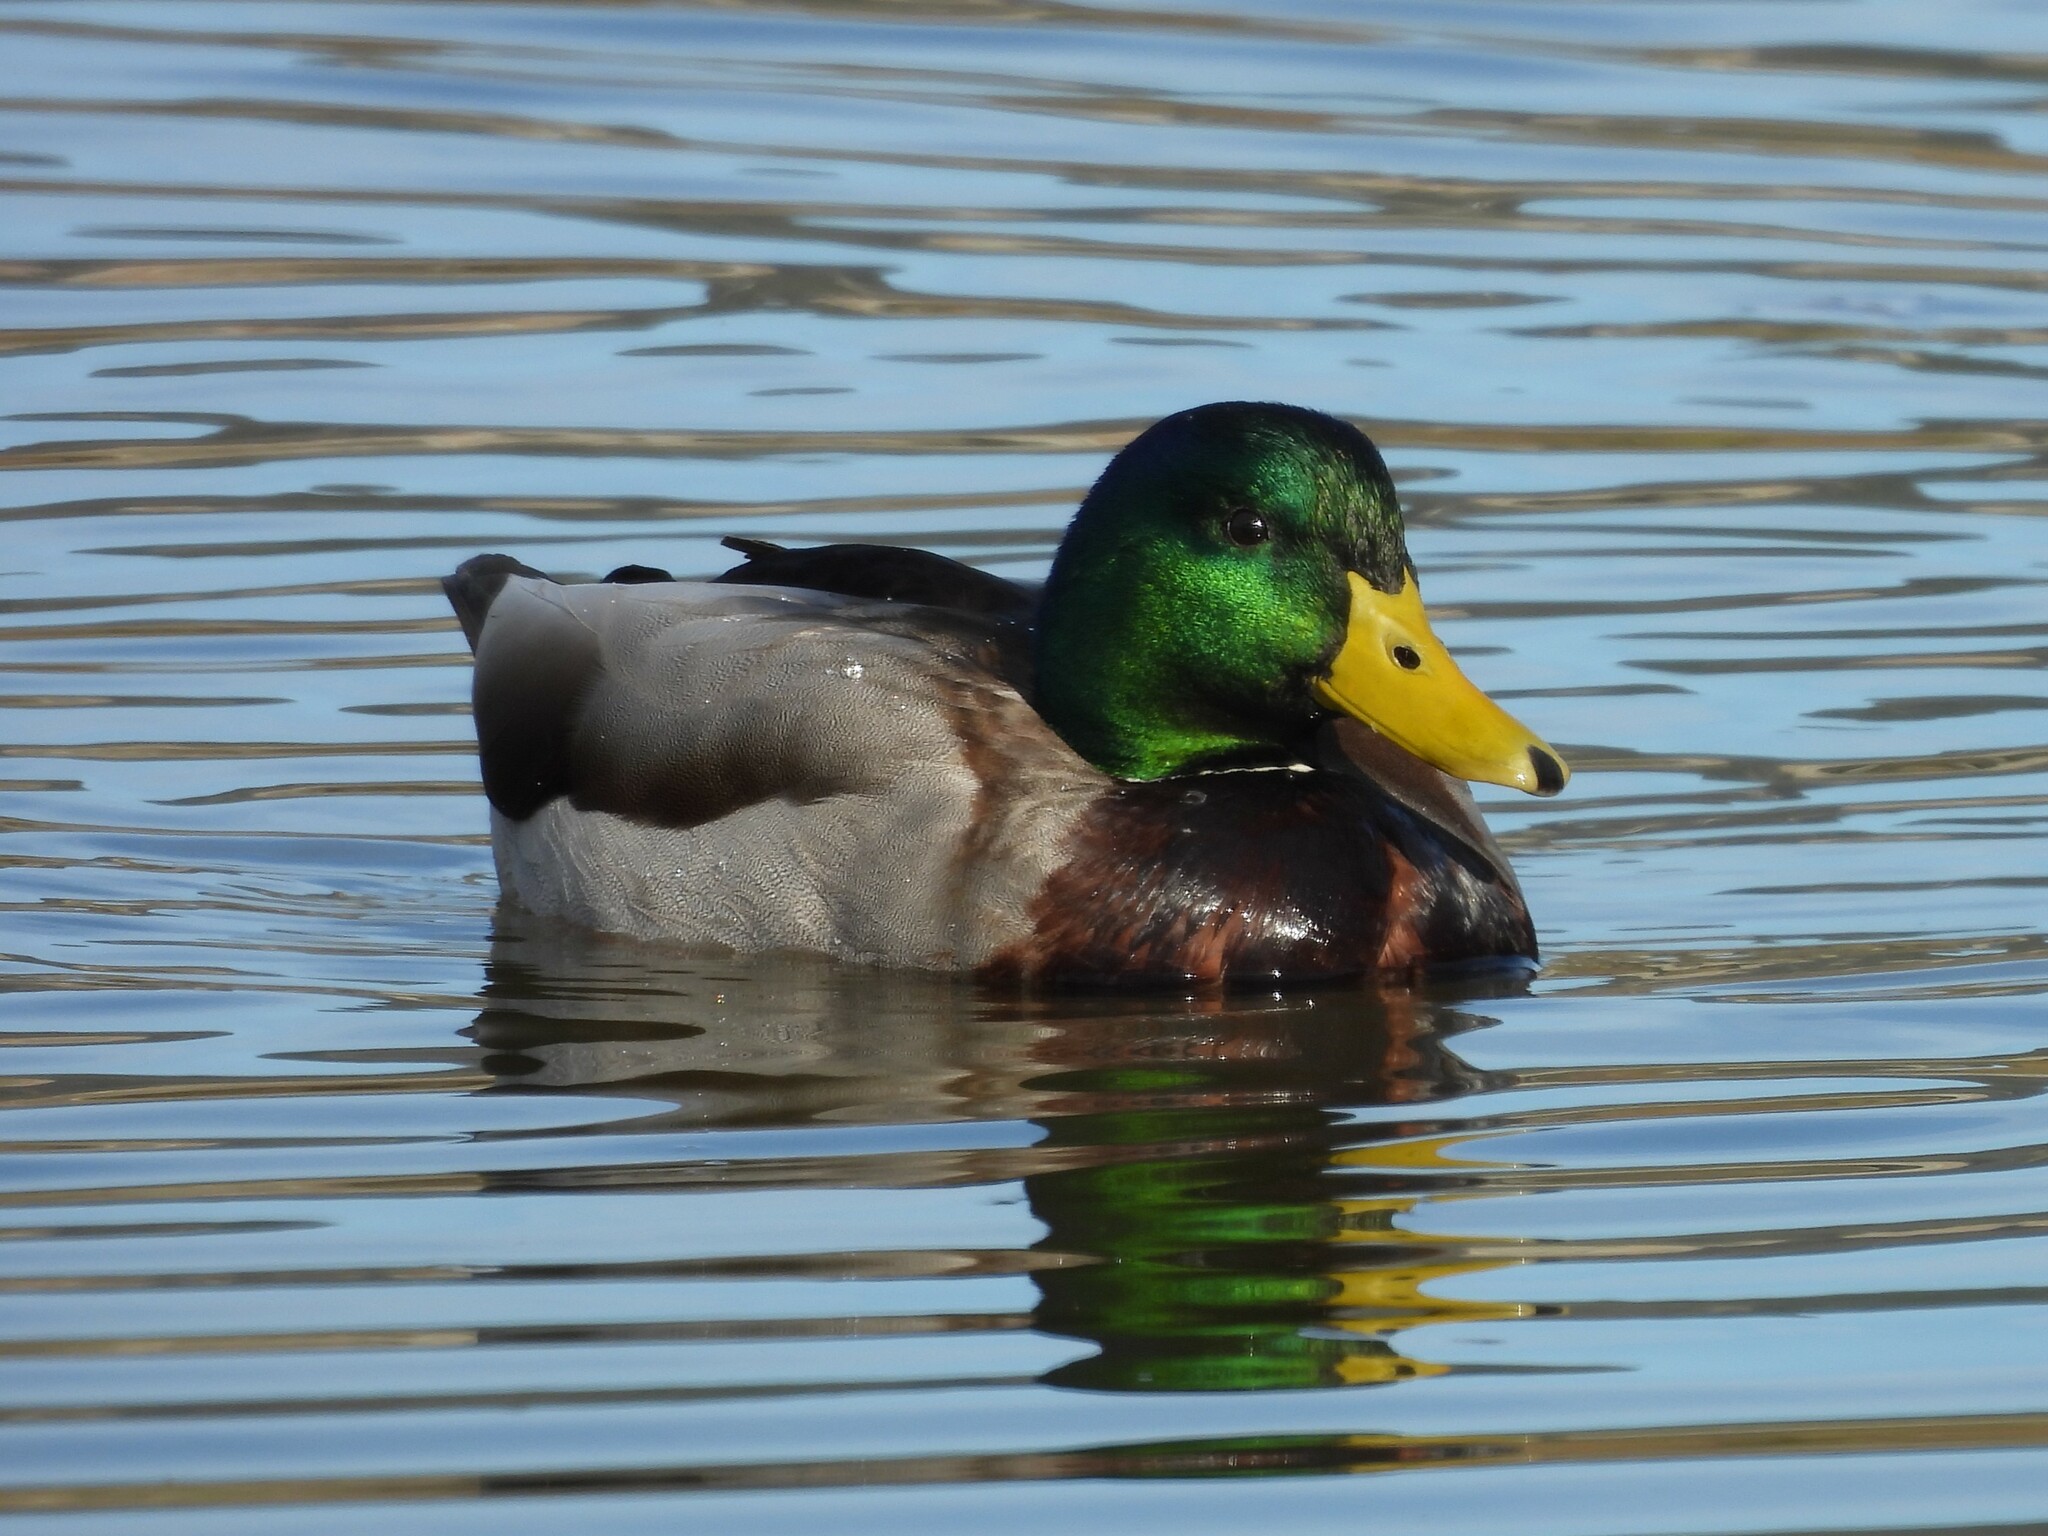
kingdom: Animalia
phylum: Chordata
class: Aves
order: Anseriformes
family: Anatidae
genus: Anas
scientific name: Anas platyrhynchos
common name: Mallard
